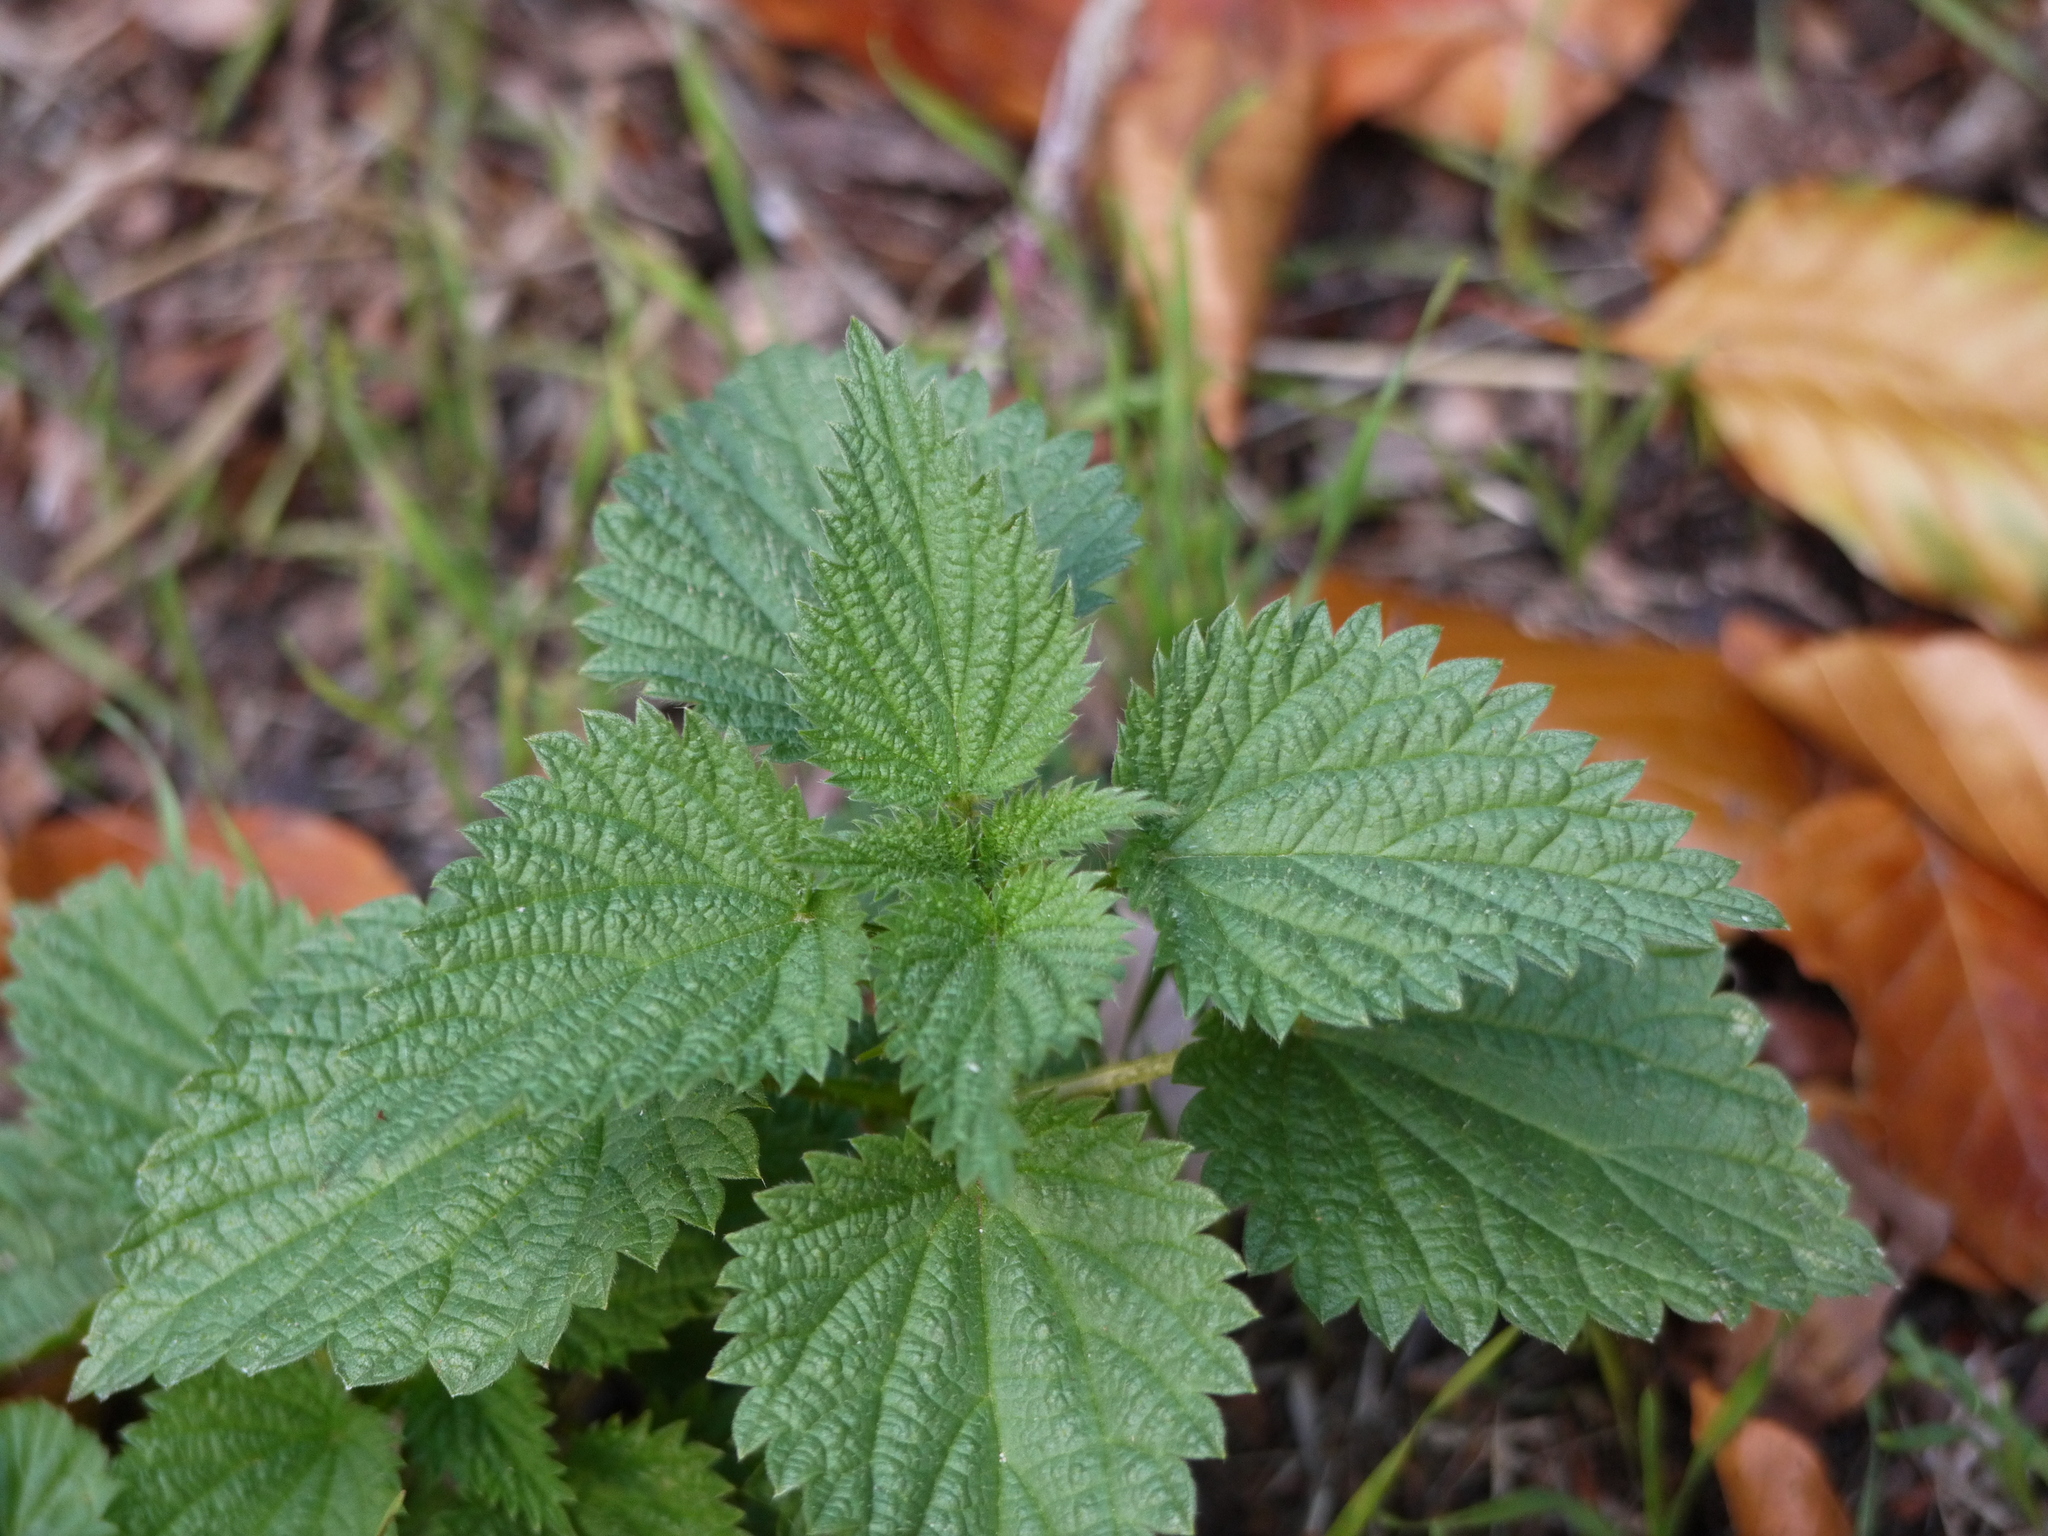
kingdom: Plantae
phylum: Tracheophyta
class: Magnoliopsida
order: Rosales
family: Urticaceae
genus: Urtica
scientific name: Urtica dioica
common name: Common nettle
